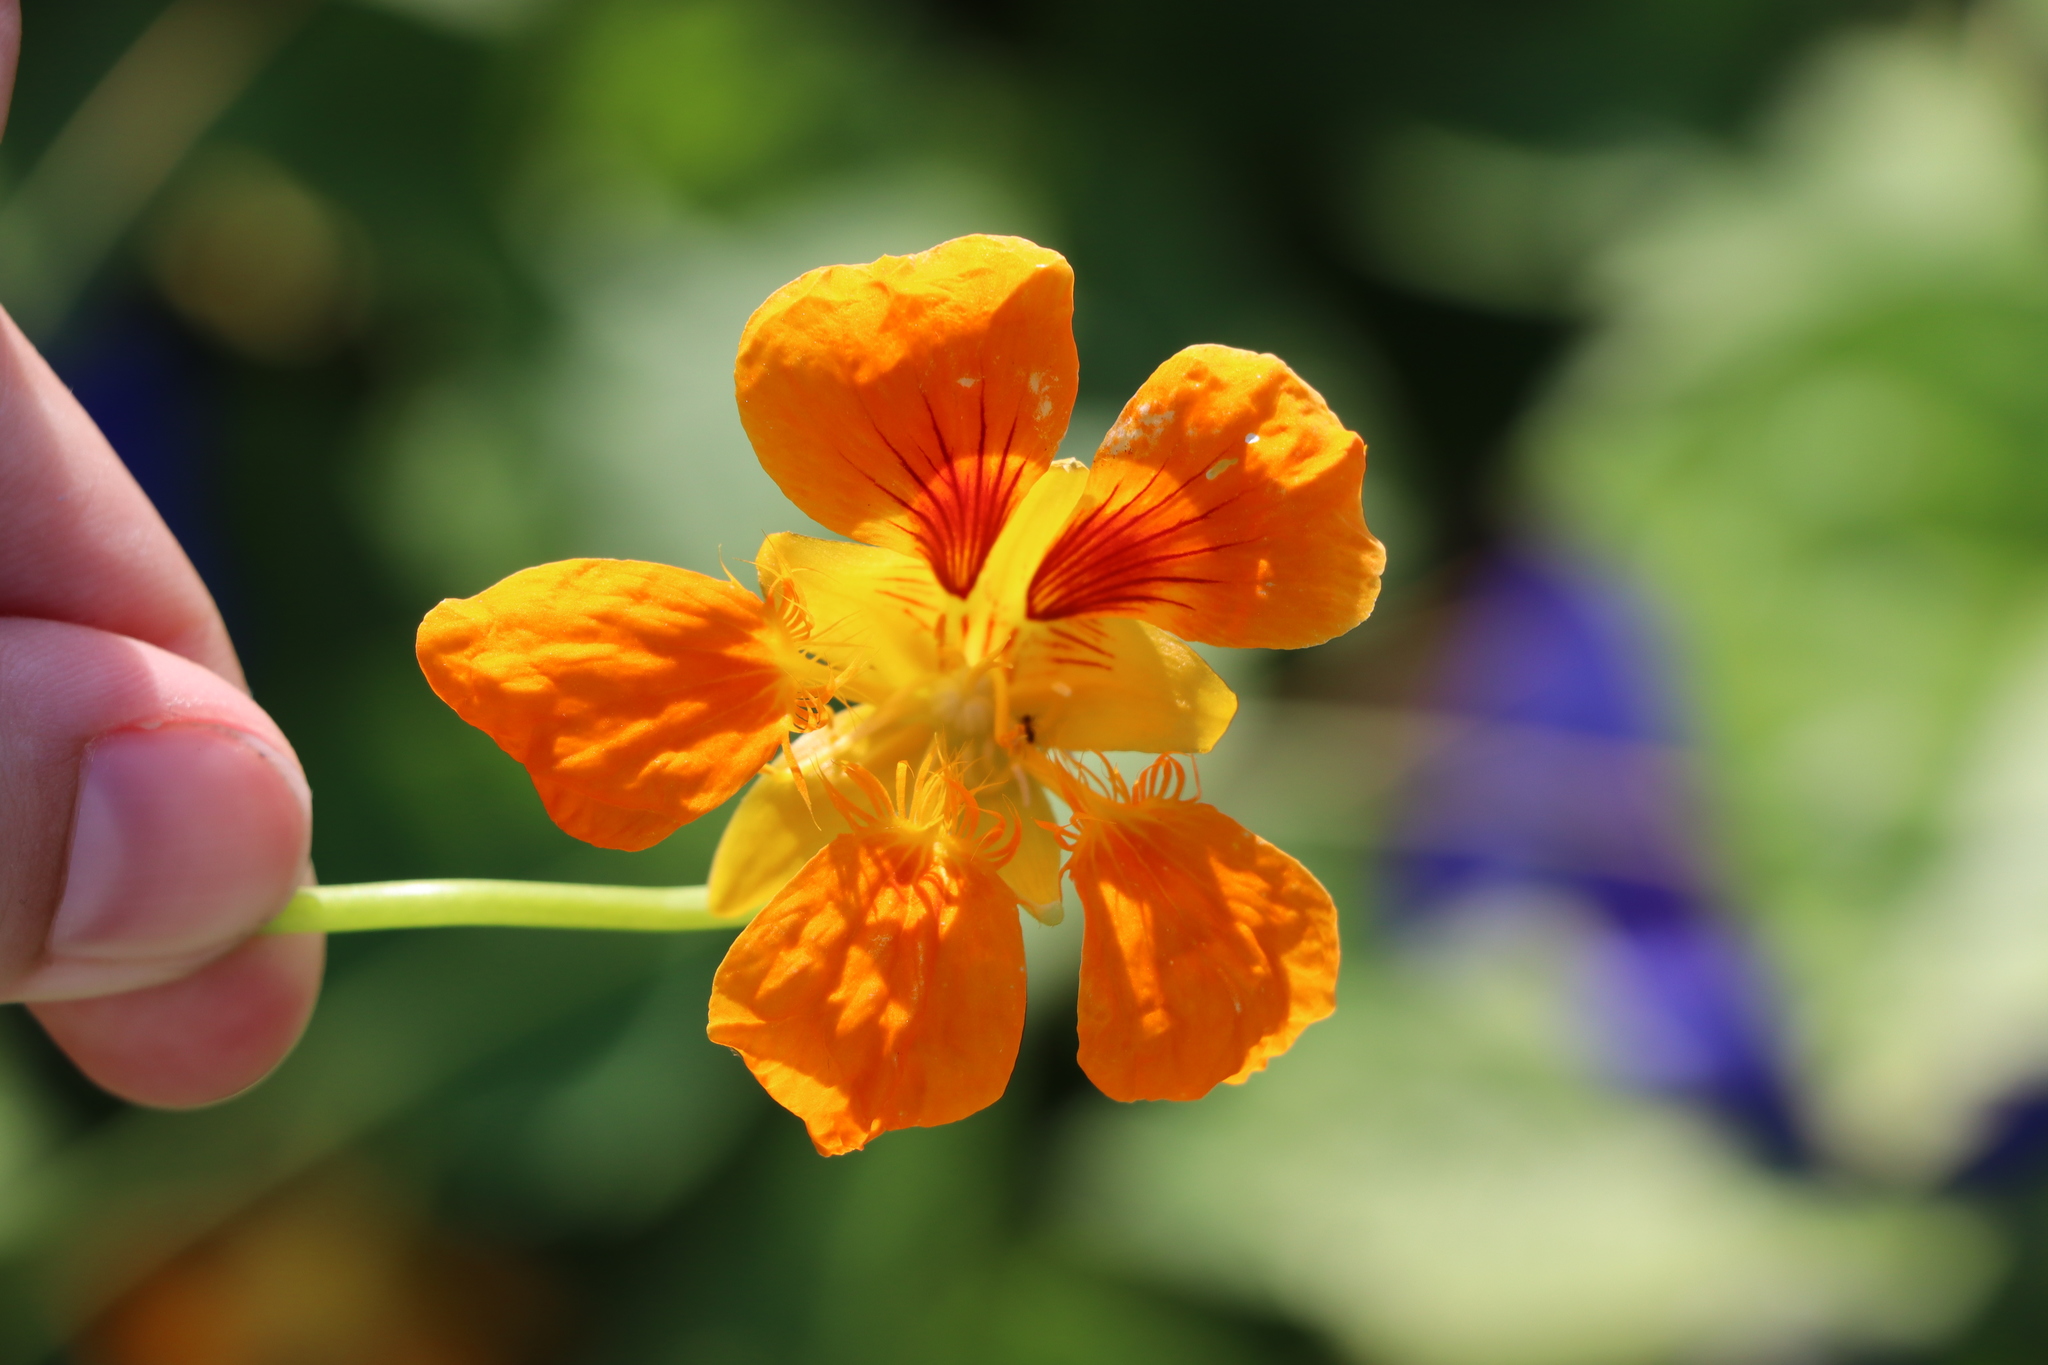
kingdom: Plantae
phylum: Tracheophyta
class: Magnoliopsida
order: Brassicales
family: Tropaeolaceae
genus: Tropaeolum
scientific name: Tropaeolum majus
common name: Nasturtium
